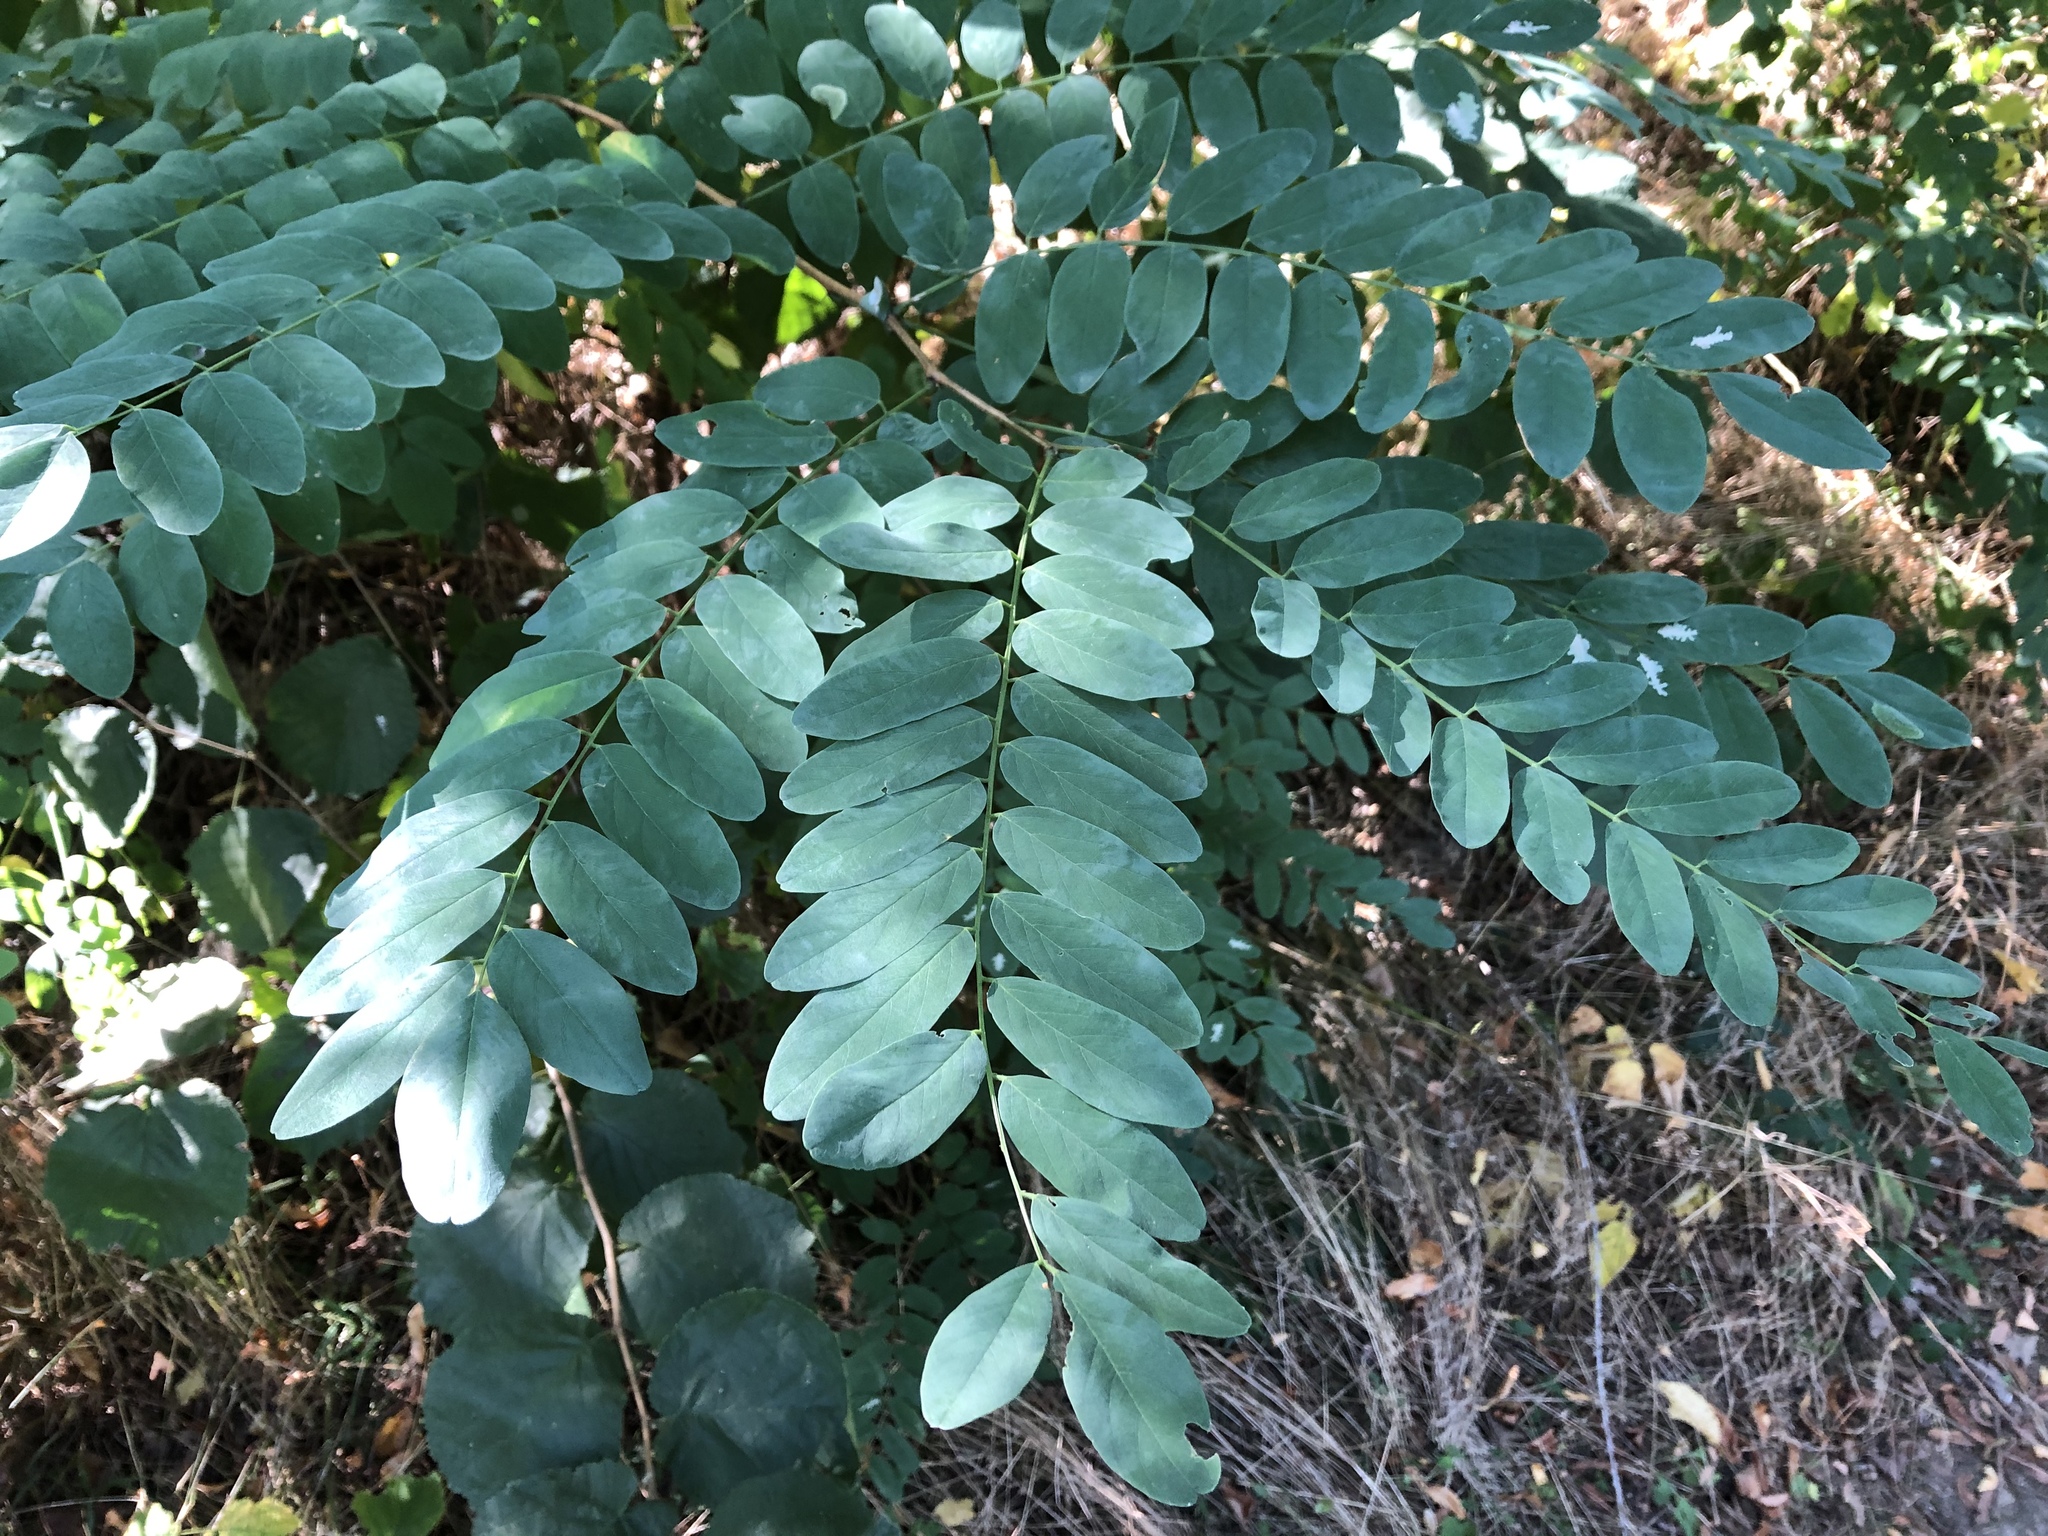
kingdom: Plantae
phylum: Tracheophyta
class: Magnoliopsida
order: Fabales
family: Fabaceae
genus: Robinia
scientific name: Robinia pseudoacacia
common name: Black locust
